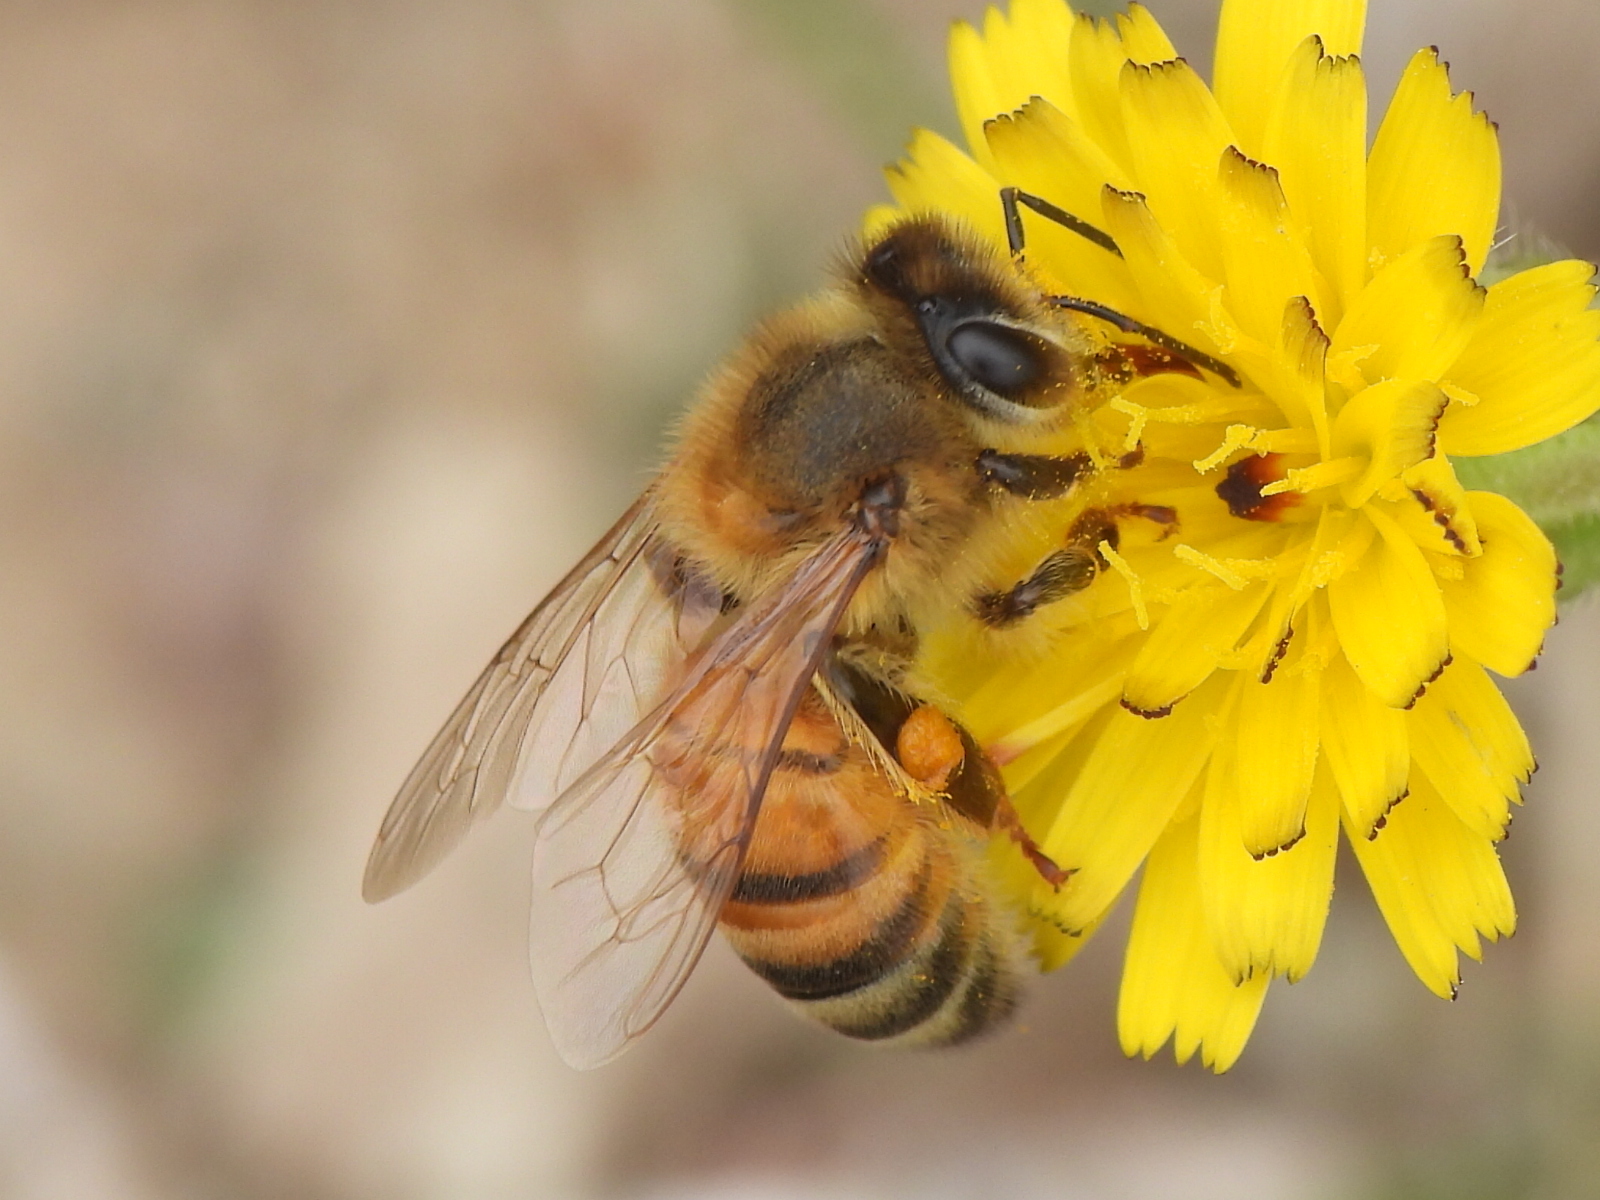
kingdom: Animalia
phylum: Arthropoda
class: Insecta
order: Hymenoptera
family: Apidae
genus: Apis
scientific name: Apis mellifera
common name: Honey bee
